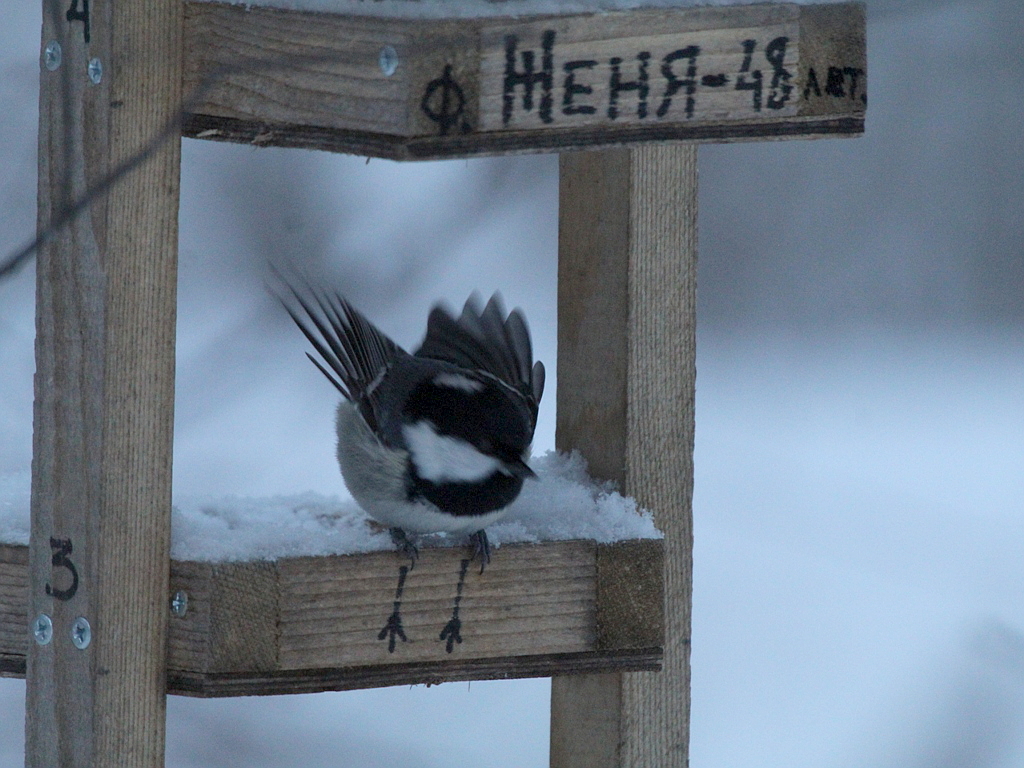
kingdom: Animalia
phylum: Chordata
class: Aves
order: Passeriformes
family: Paridae
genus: Periparus
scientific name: Periparus ater
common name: Coal tit
